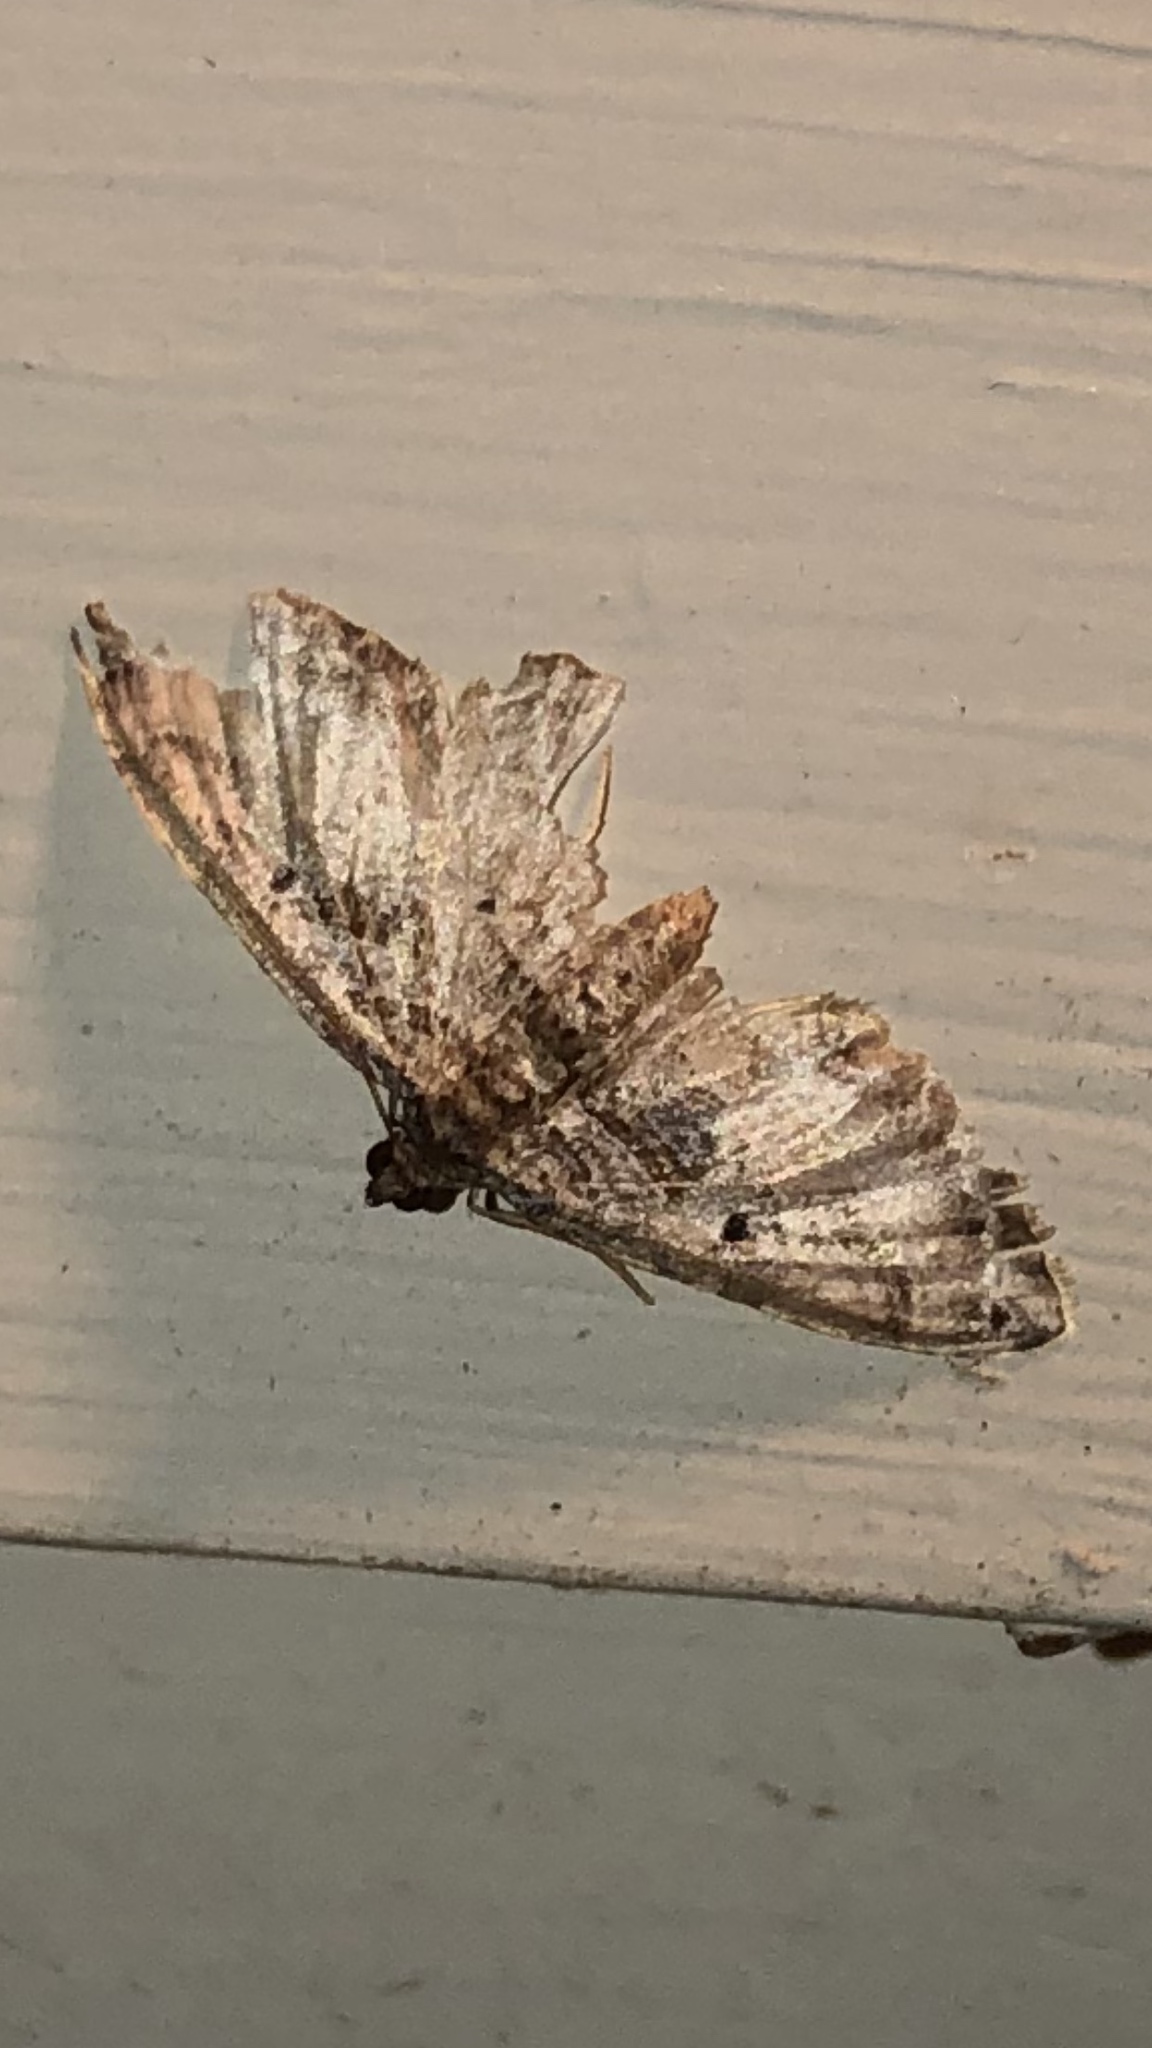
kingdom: Animalia
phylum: Arthropoda
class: Insecta
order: Lepidoptera
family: Geometridae
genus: Costaconvexa
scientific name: Costaconvexa centrostrigaria
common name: Bent-line carpet
